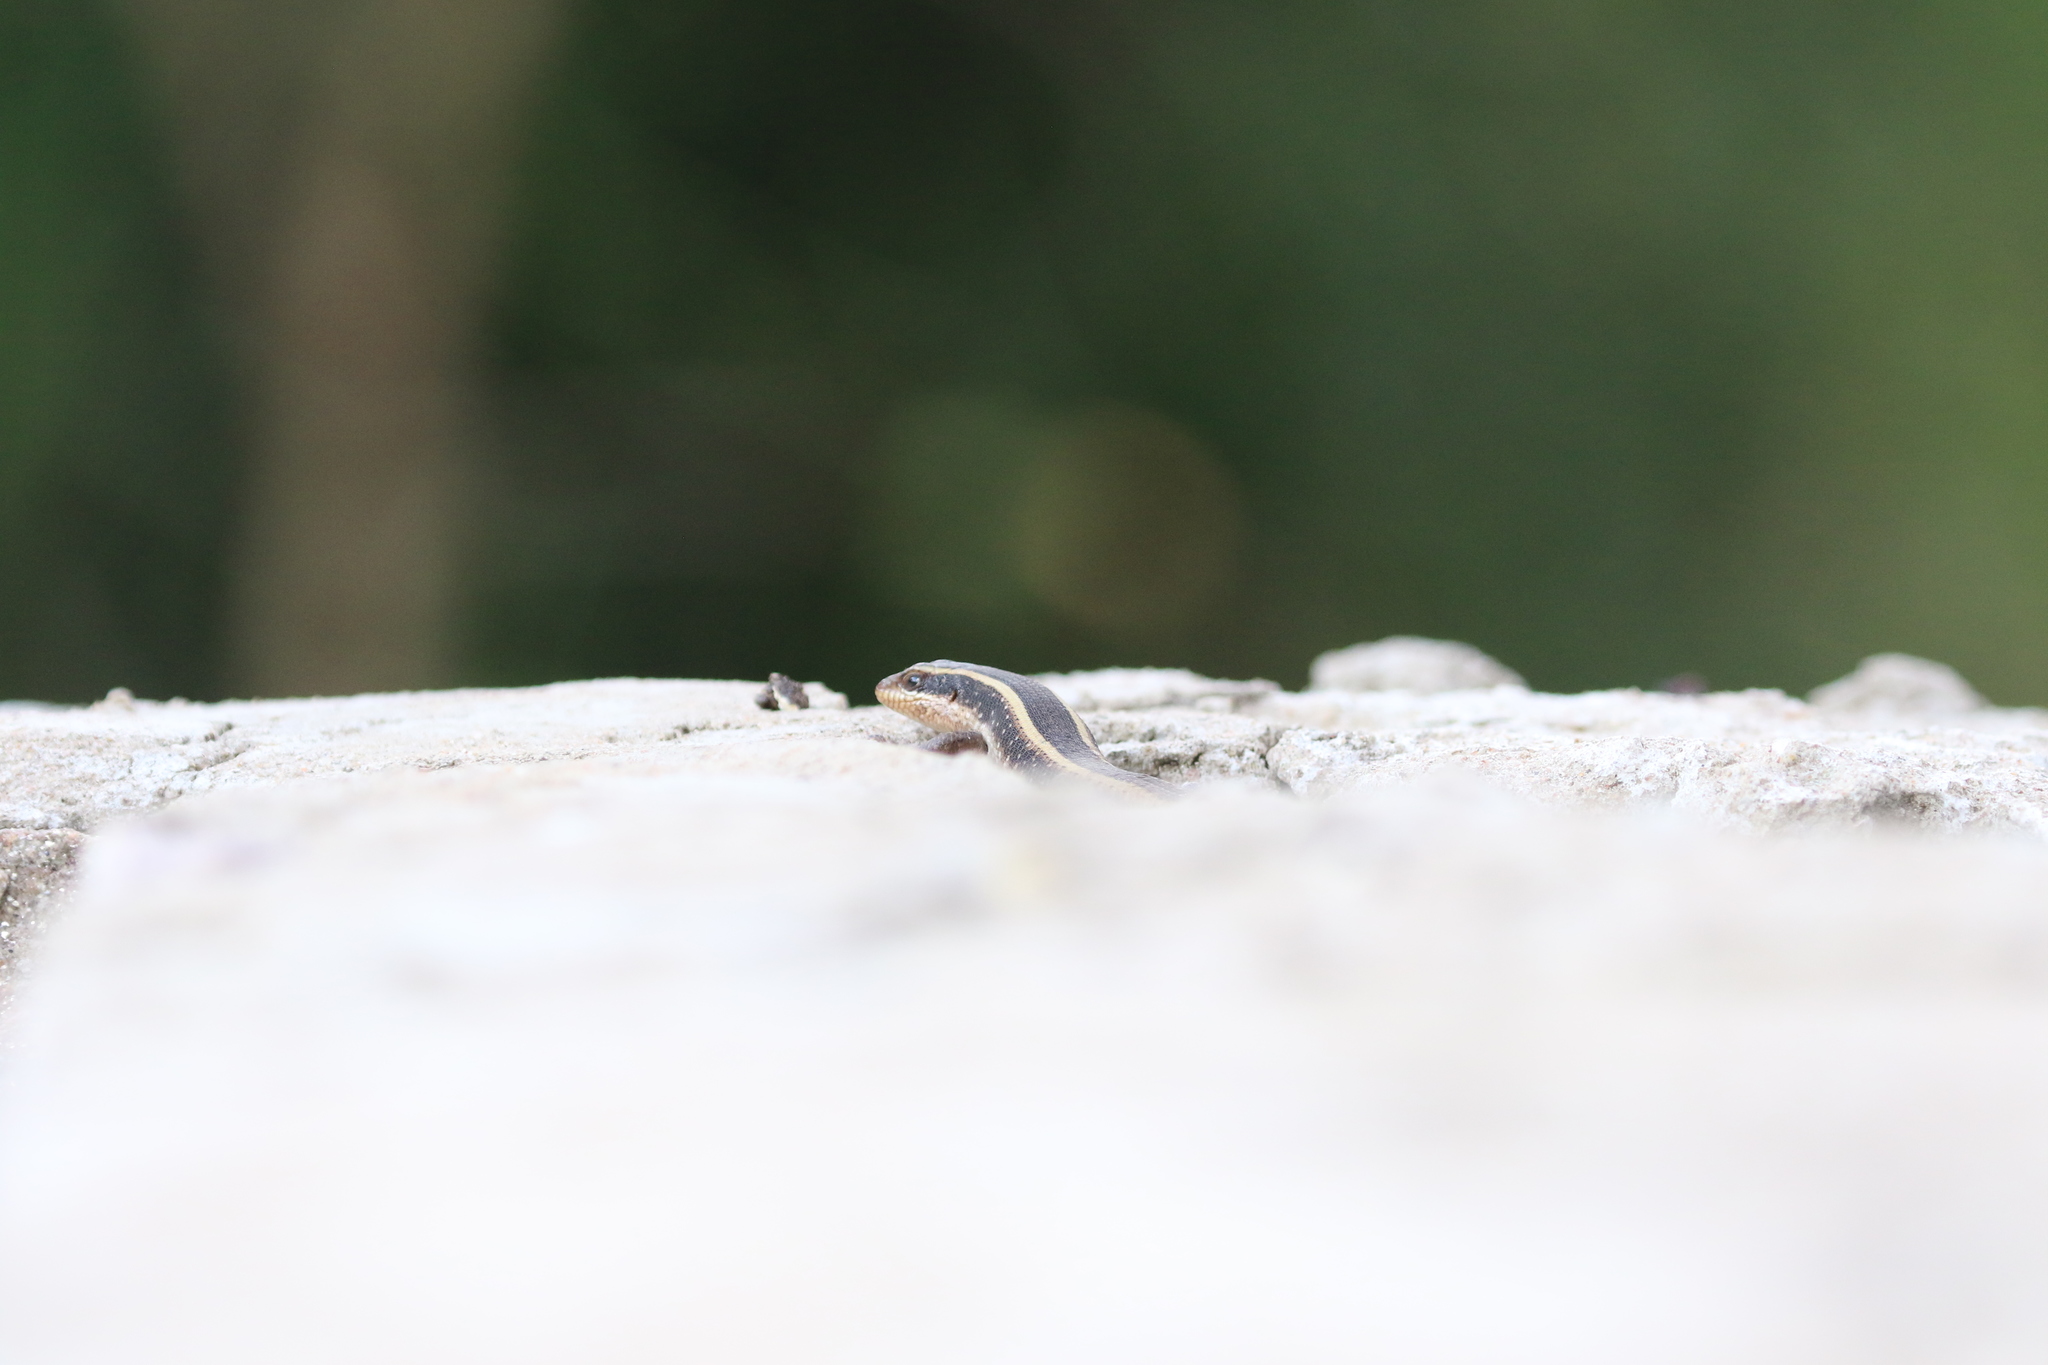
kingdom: Animalia
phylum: Chordata
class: Squamata
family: Scincidae
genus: Trachylepis
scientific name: Trachylepis striata
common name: African striped mabuya
